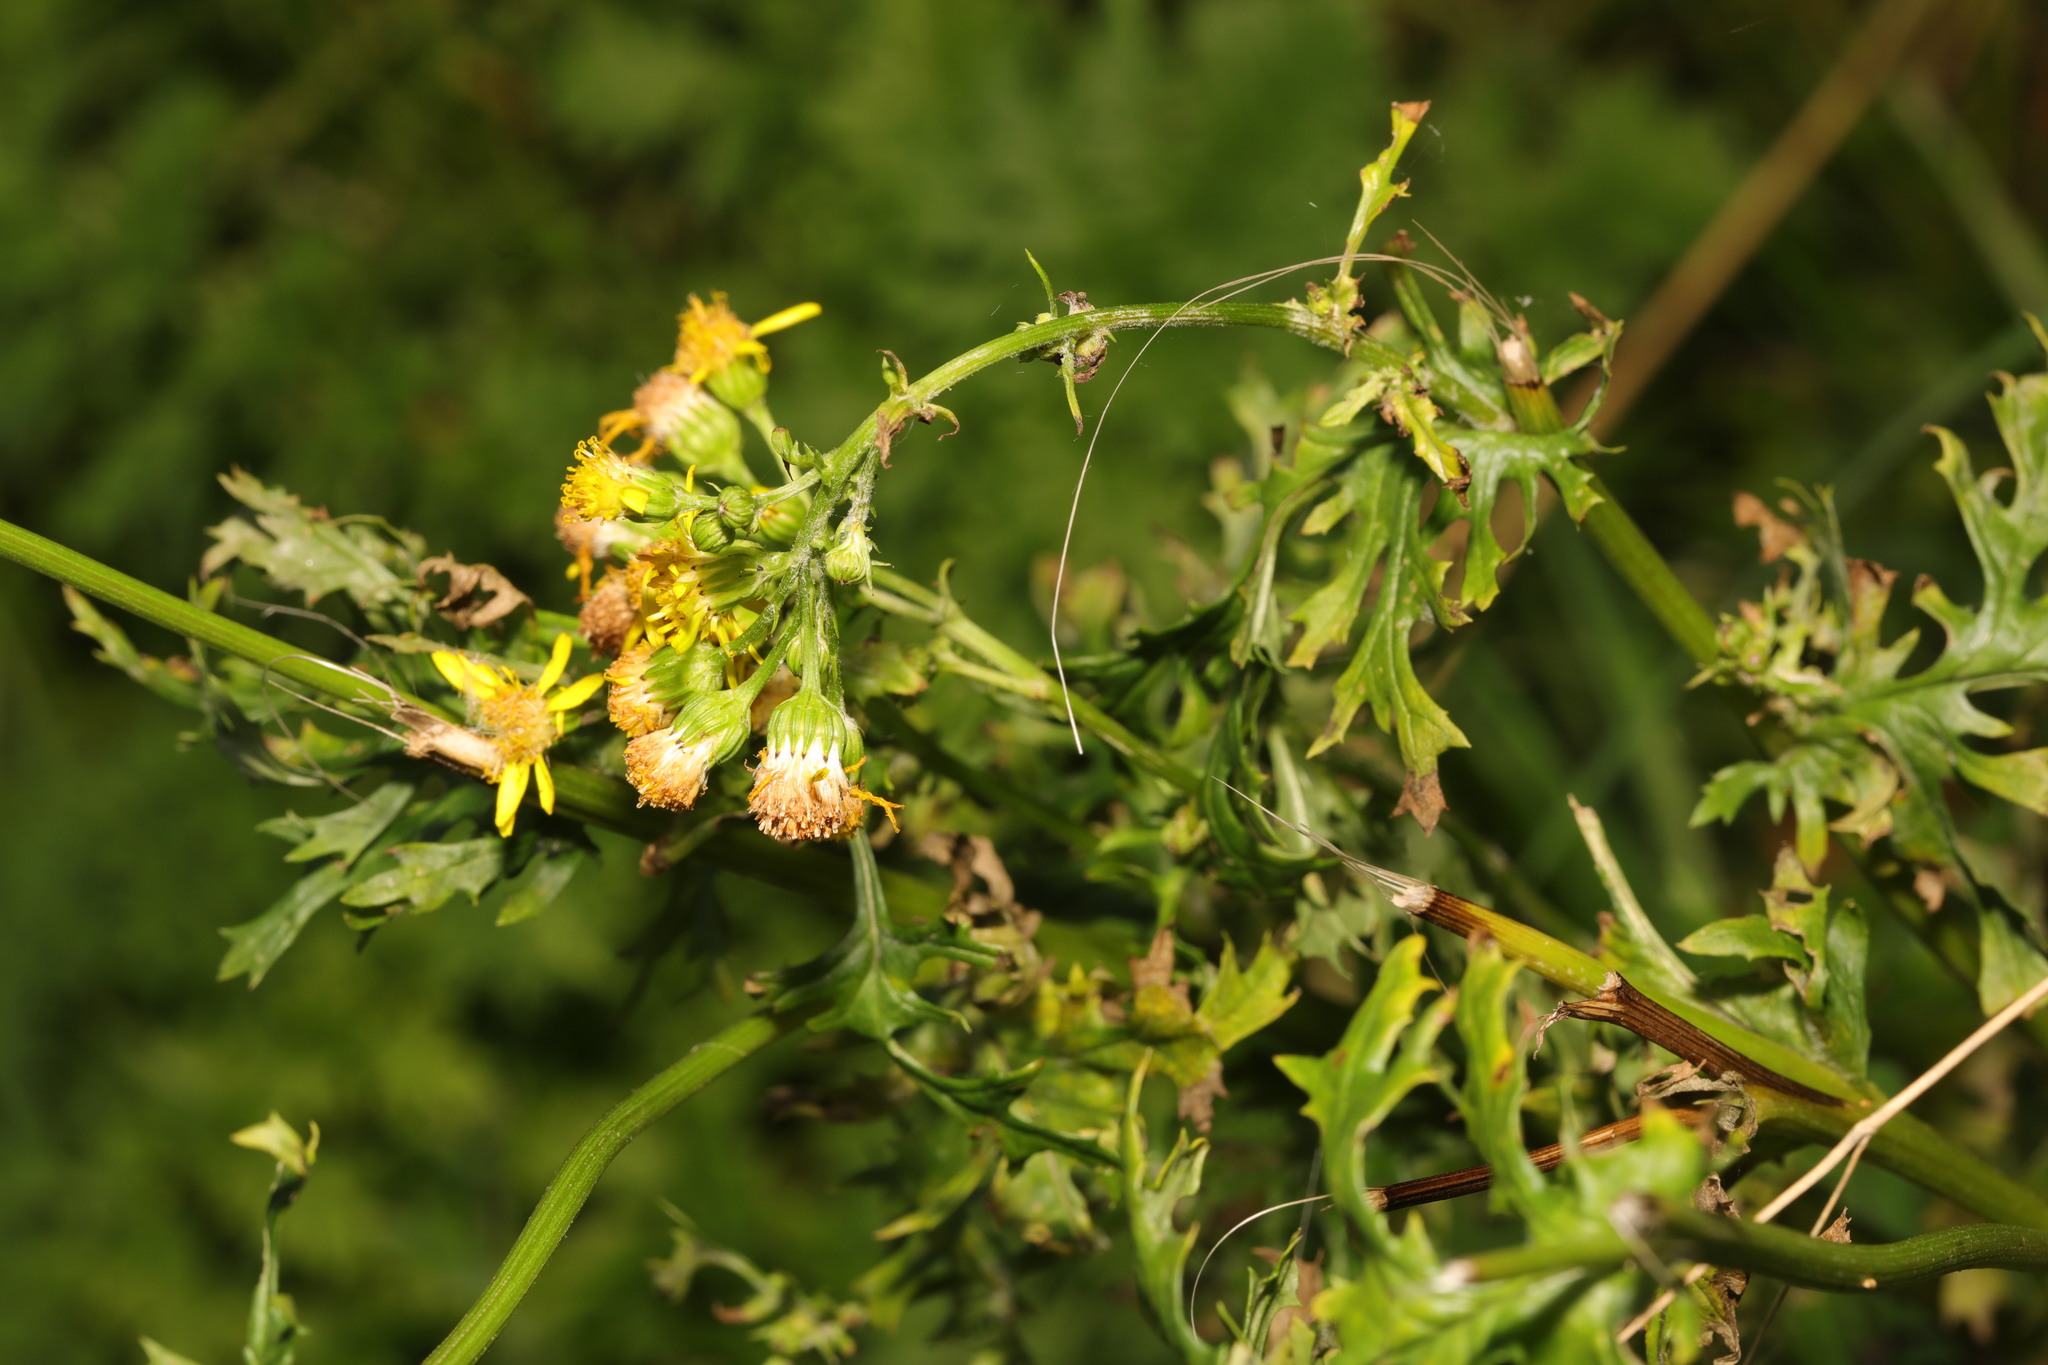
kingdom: Plantae
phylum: Tracheophyta
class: Magnoliopsida
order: Asterales
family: Asteraceae
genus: Jacobaea
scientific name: Jacobaea vulgaris
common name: Stinking willie
